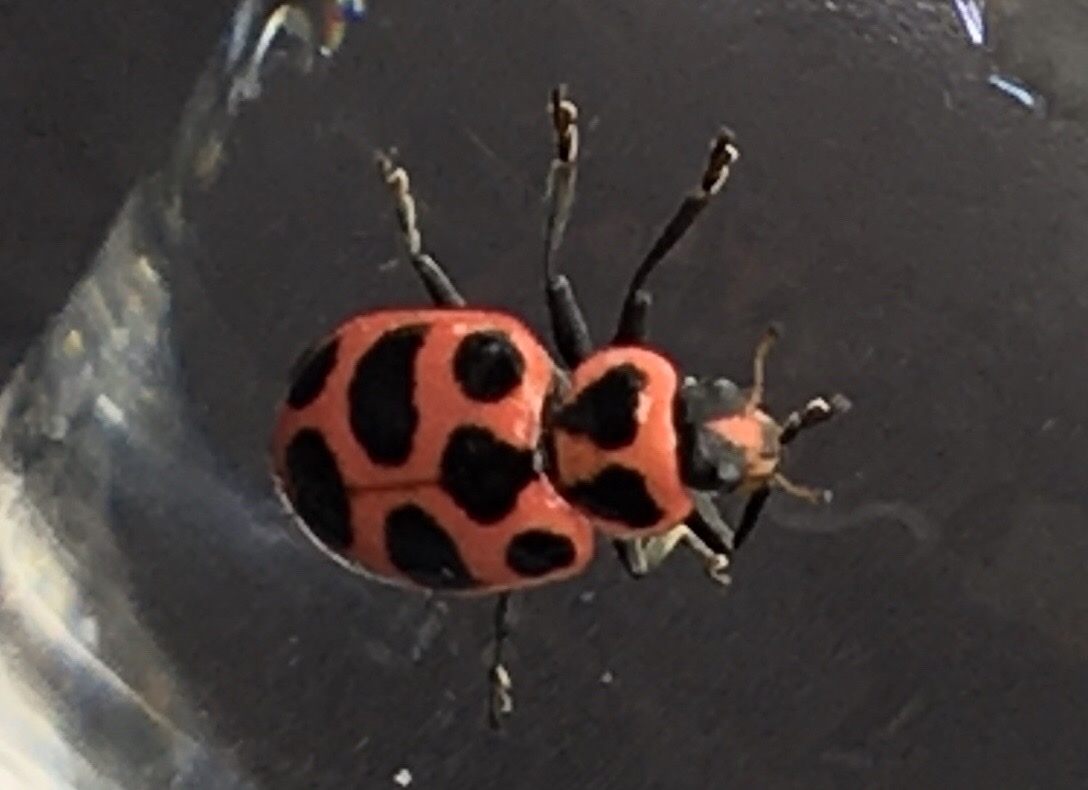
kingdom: Animalia
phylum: Arthropoda
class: Insecta
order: Coleoptera
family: Coccinellidae
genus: Coleomegilla
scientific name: Coleomegilla maculata
